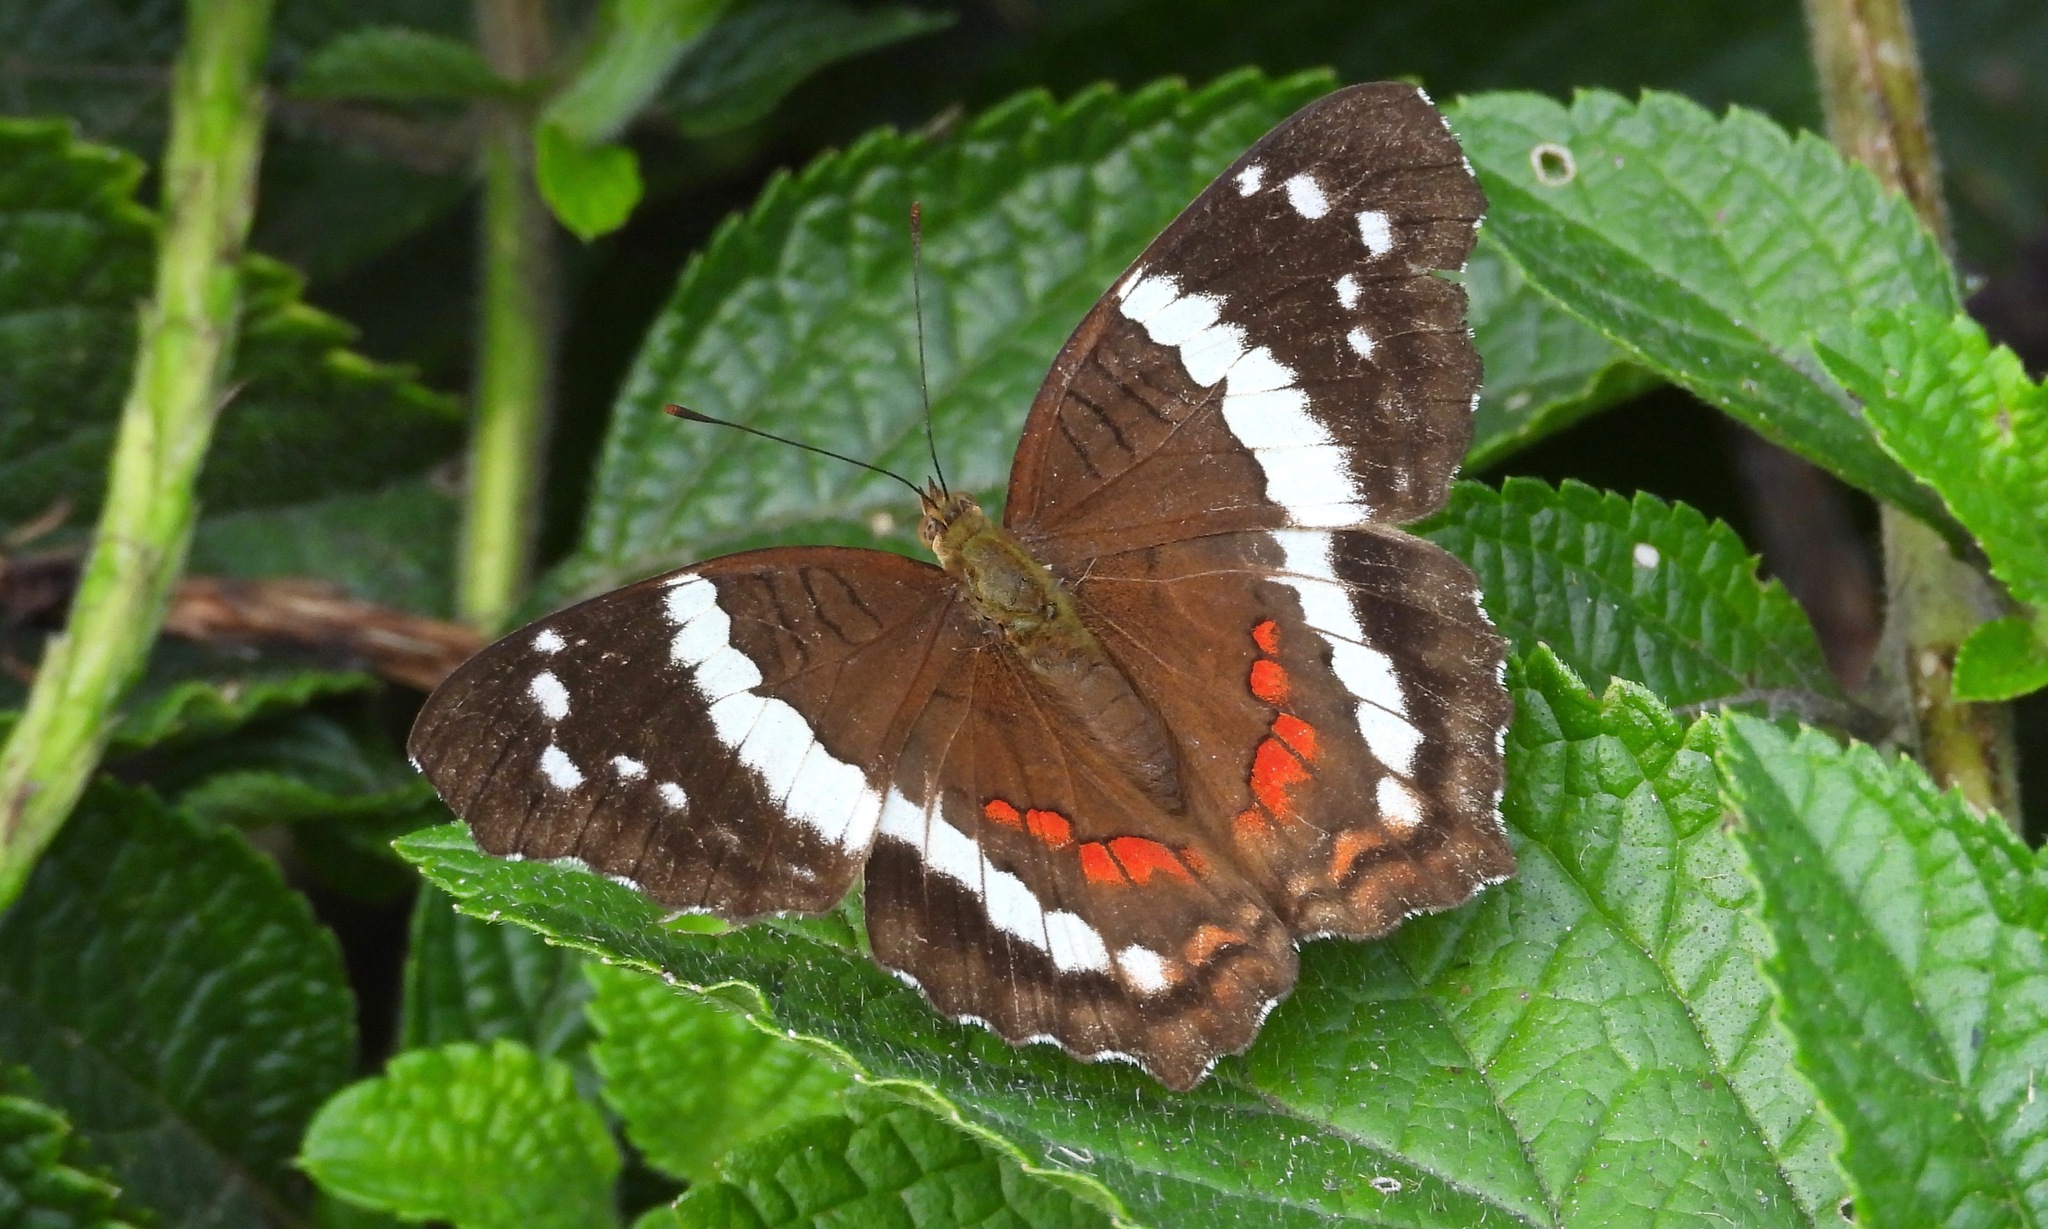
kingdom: Animalia
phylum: Arthropoda
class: Insecta
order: Lepidoptera
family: Nymphalidae
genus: Anartia
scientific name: Anartia fatima
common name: Banded peacock
